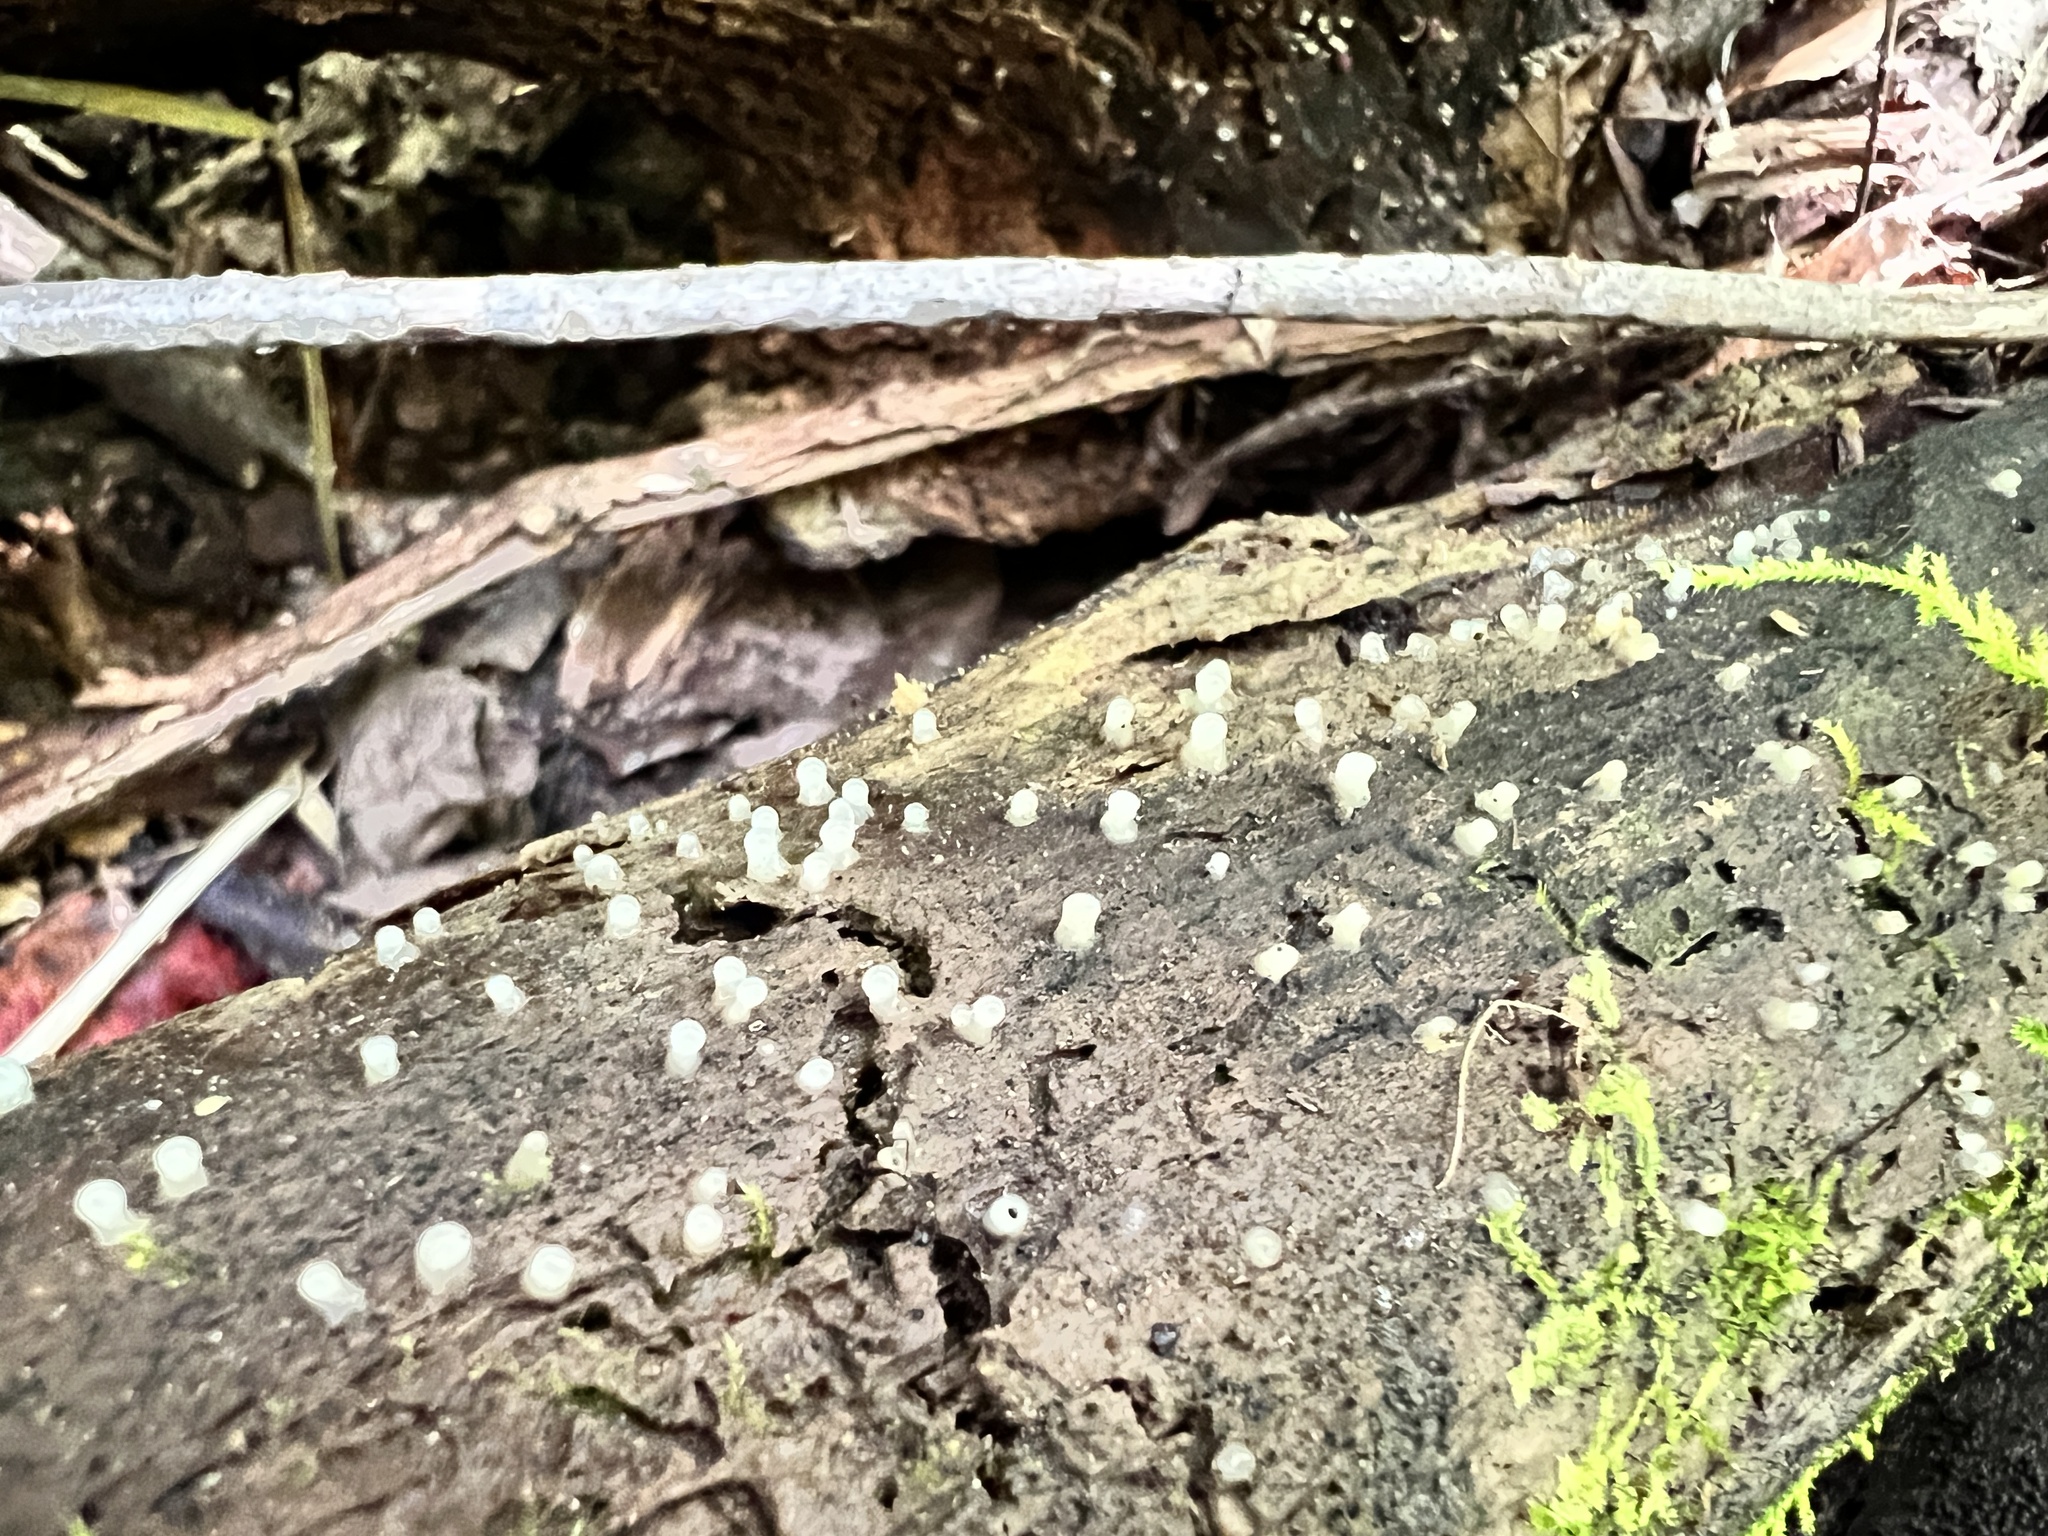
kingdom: Fungi
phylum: Basidiomycota
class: Atractiellomycetes
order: Atractiellales
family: Phleogenaceae
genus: Helicogloea
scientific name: Helicogloea compressa
